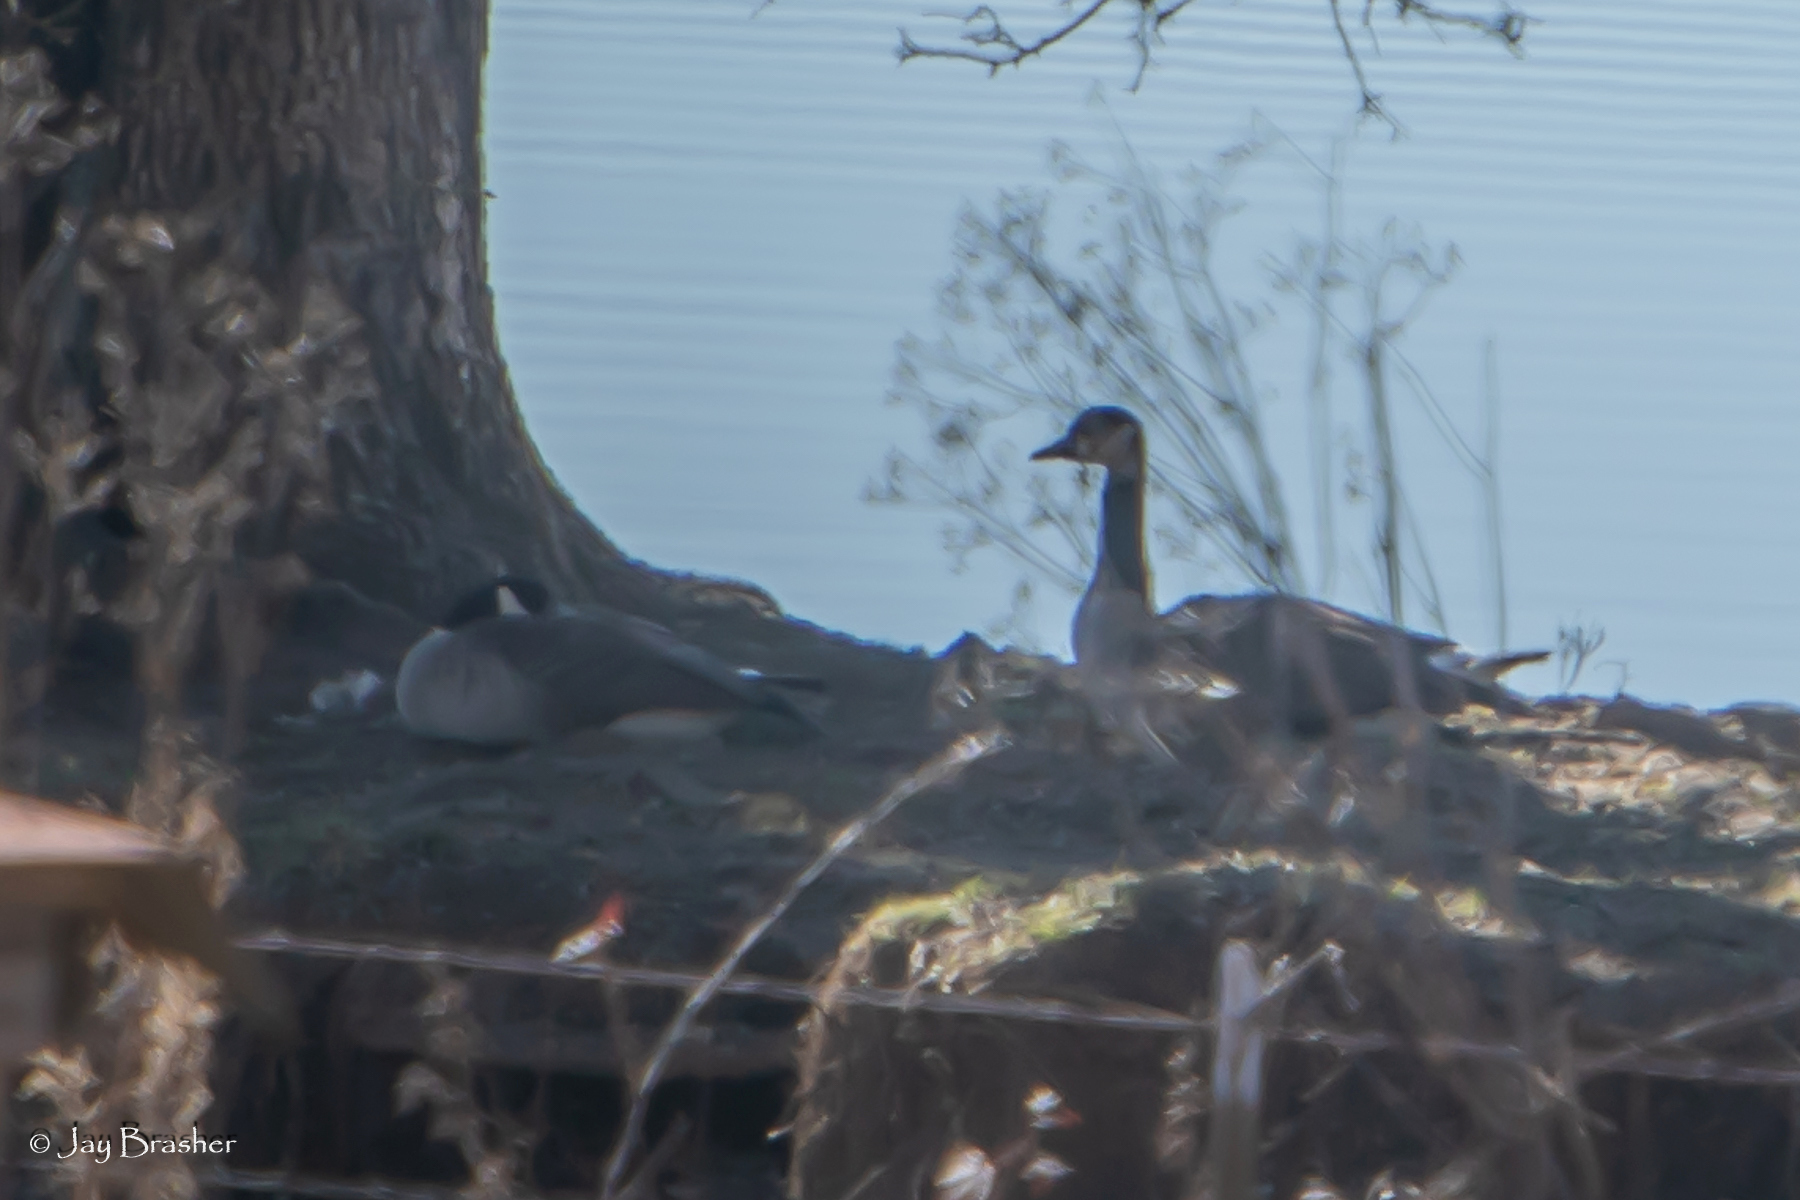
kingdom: Animalia
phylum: Chordata
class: Aves
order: Anseriformes
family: Anatidae
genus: Branta
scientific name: Branta canadensis
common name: Canada goose
